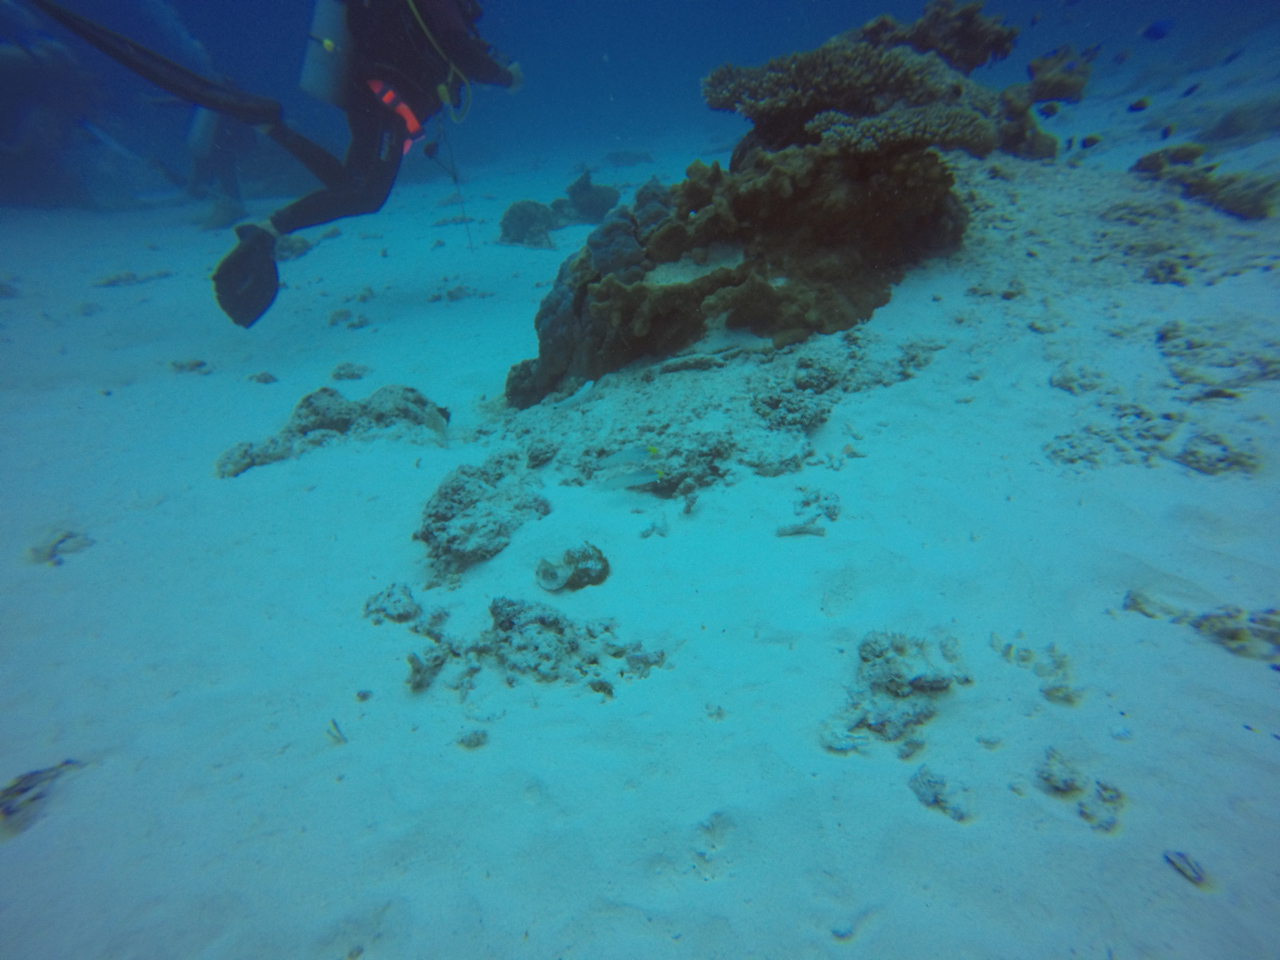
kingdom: Animalia
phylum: Chordata
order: Perciformes
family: Gobiidae
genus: Valenciennea
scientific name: Valenciennea strigata
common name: Blueband goby
